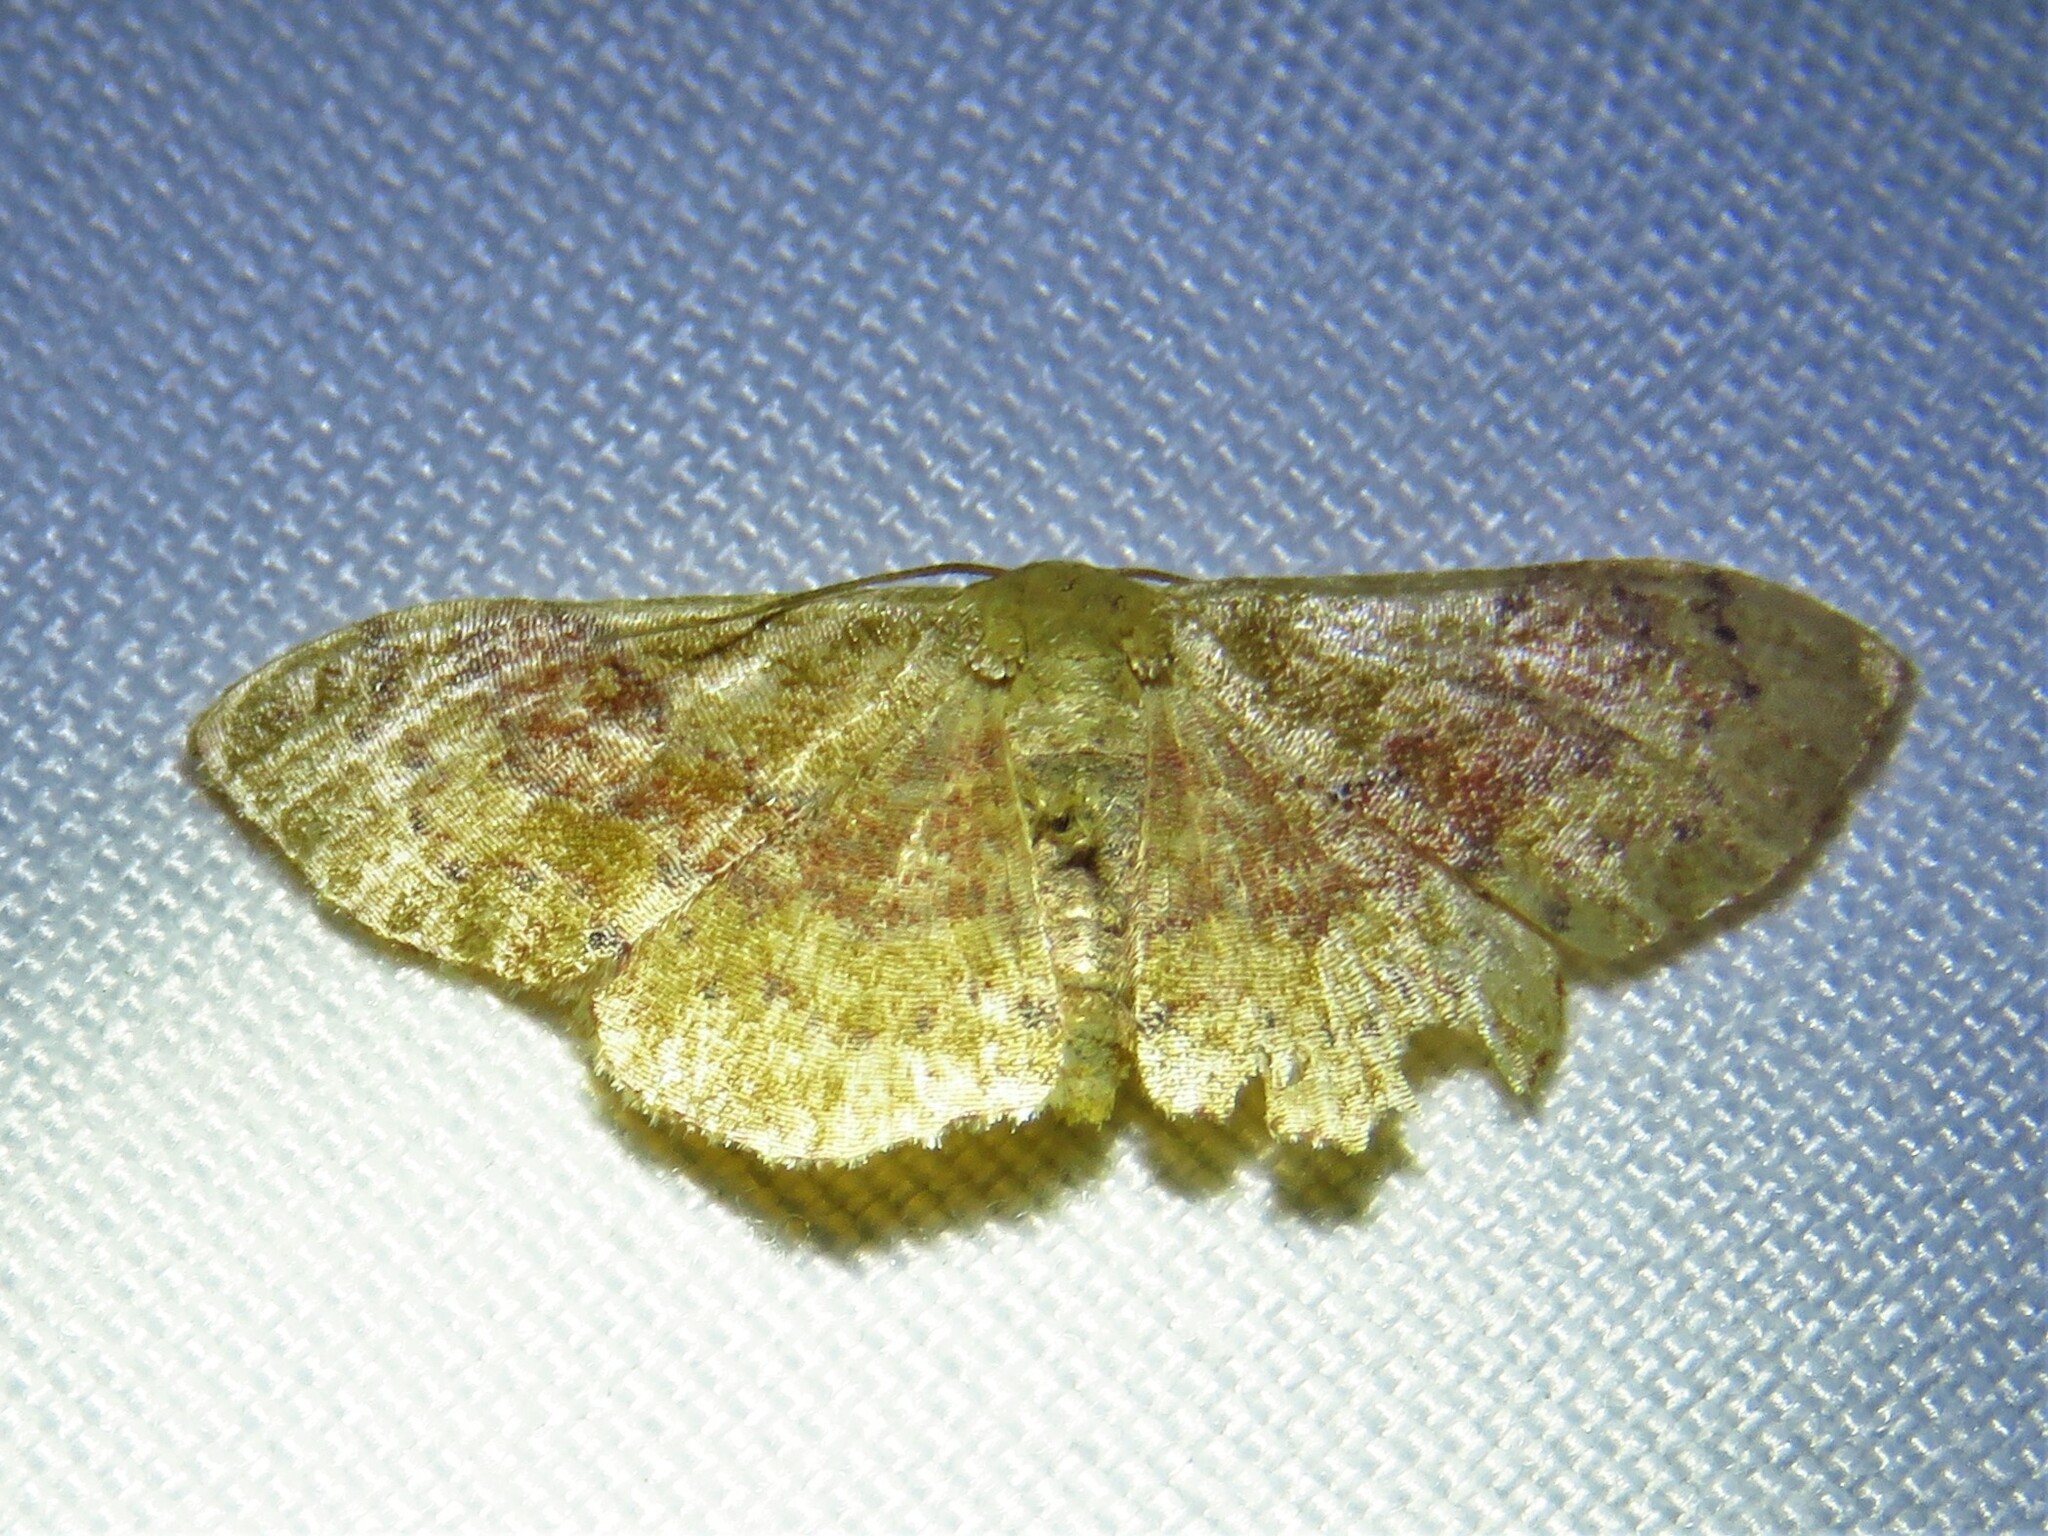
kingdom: Animalia
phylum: Arthropoda
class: Insecta
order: Lepidoptera
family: Geometridae
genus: Leptostales
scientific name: Leptostales ferruminaria
